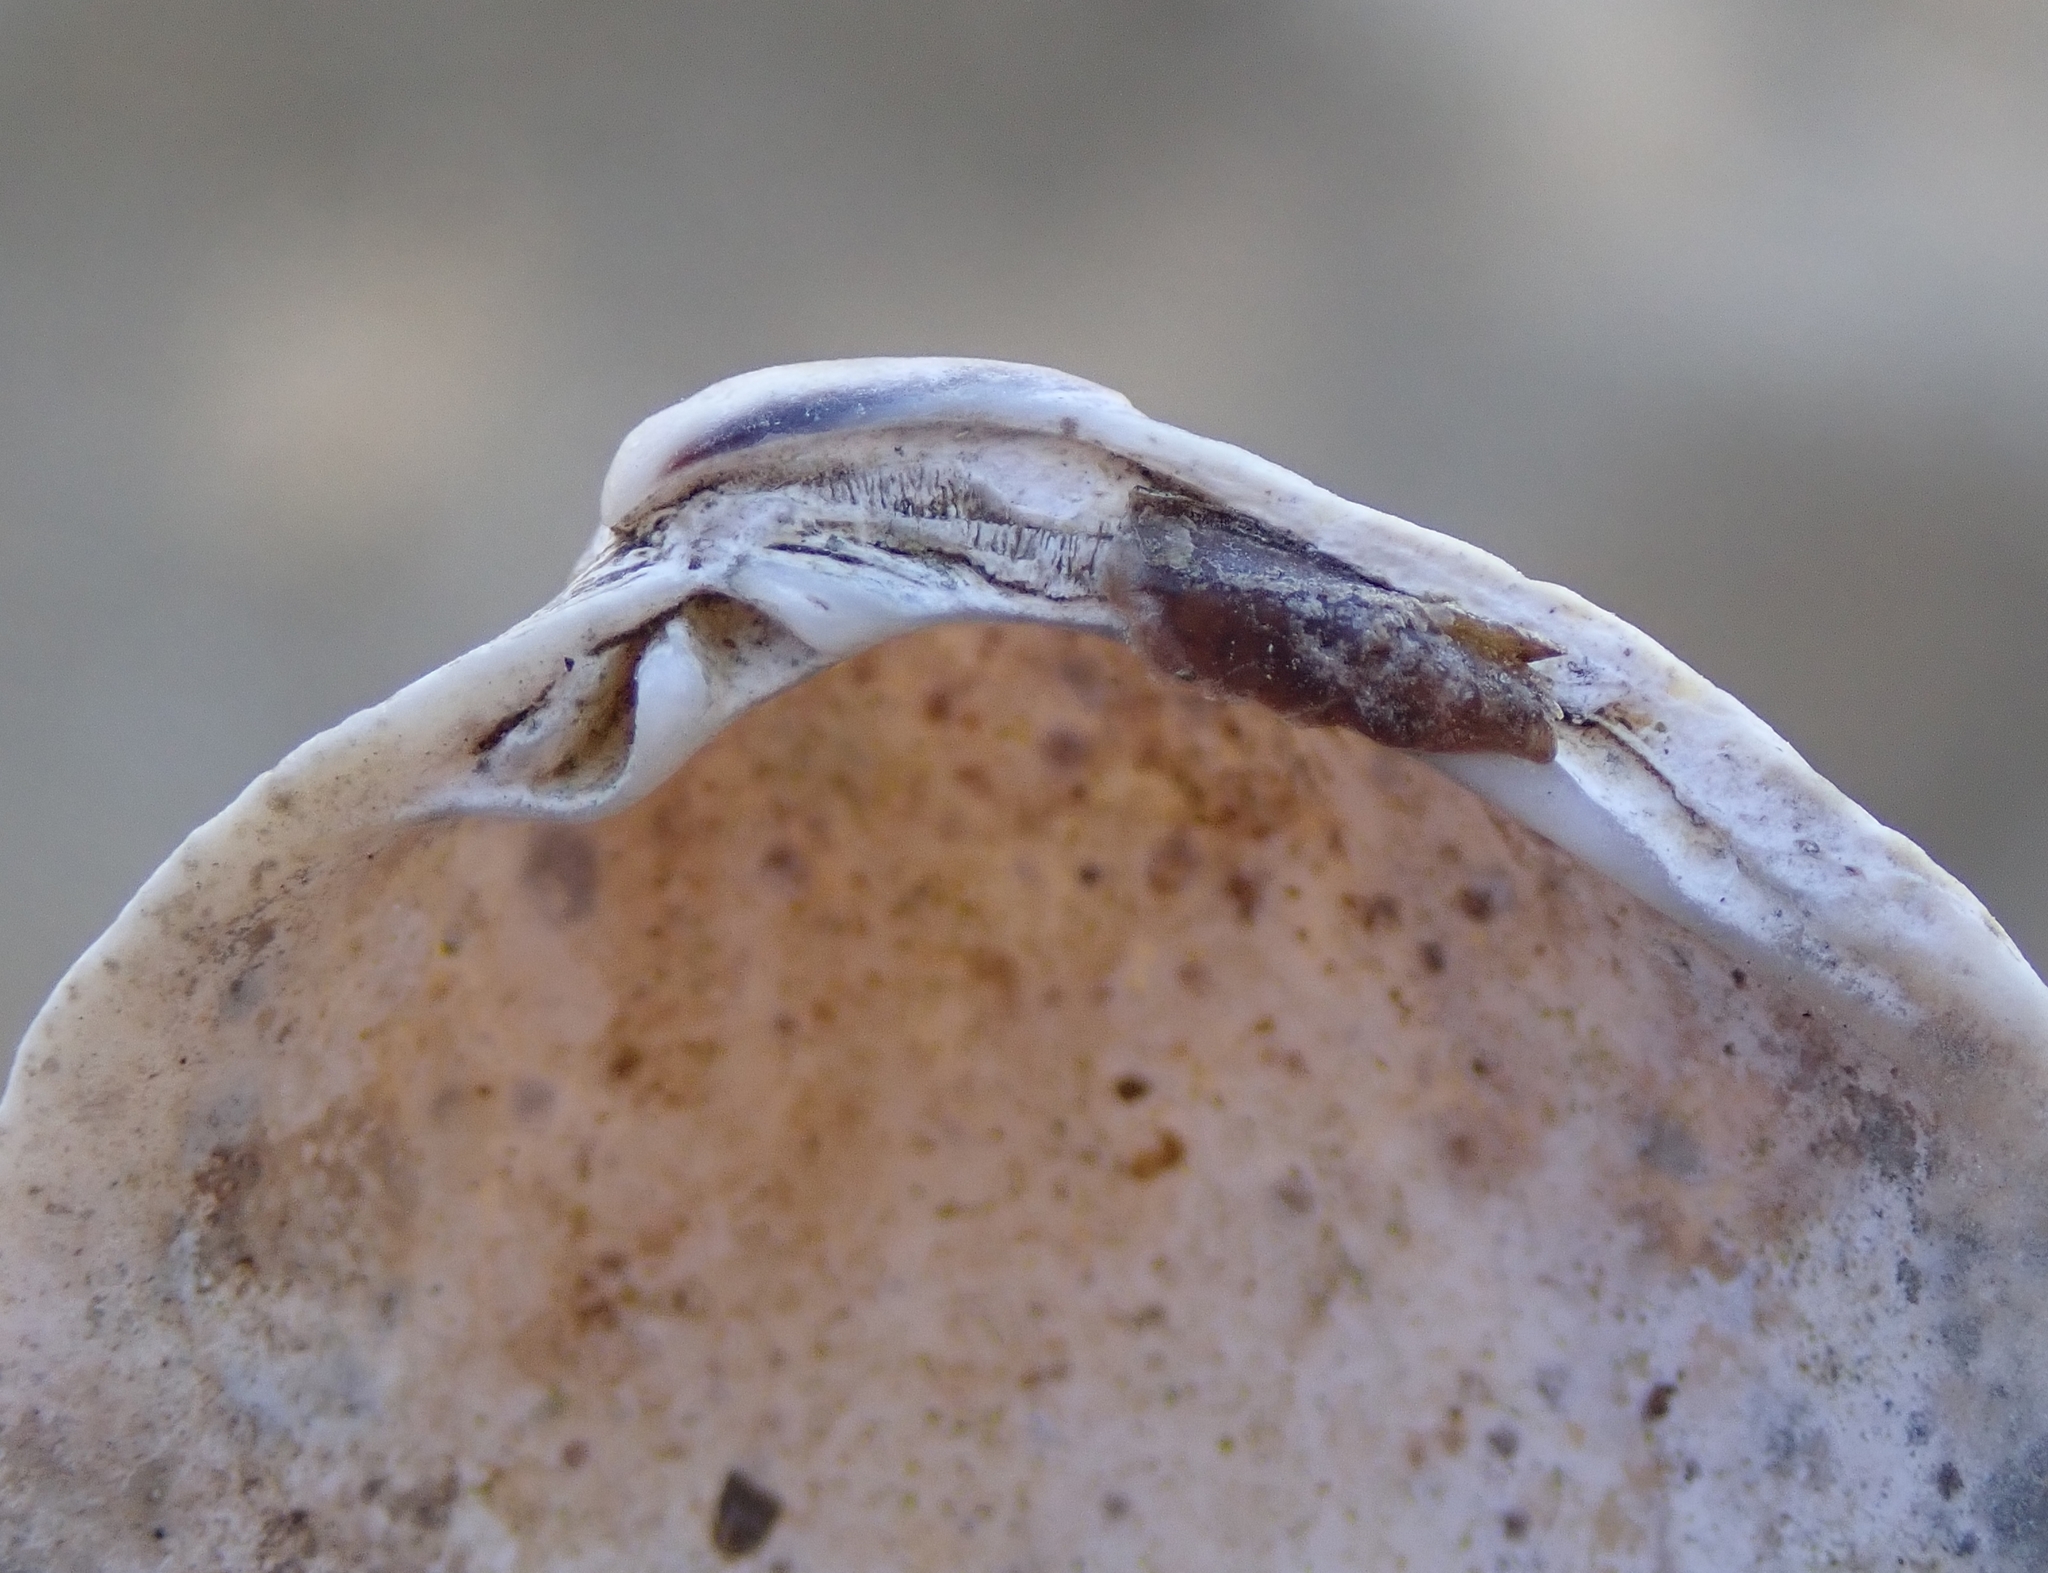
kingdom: Animalia
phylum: Mollusca
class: Bivalvia
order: Venerida
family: Veneridae
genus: Leukoma
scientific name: Leukoma staminea
